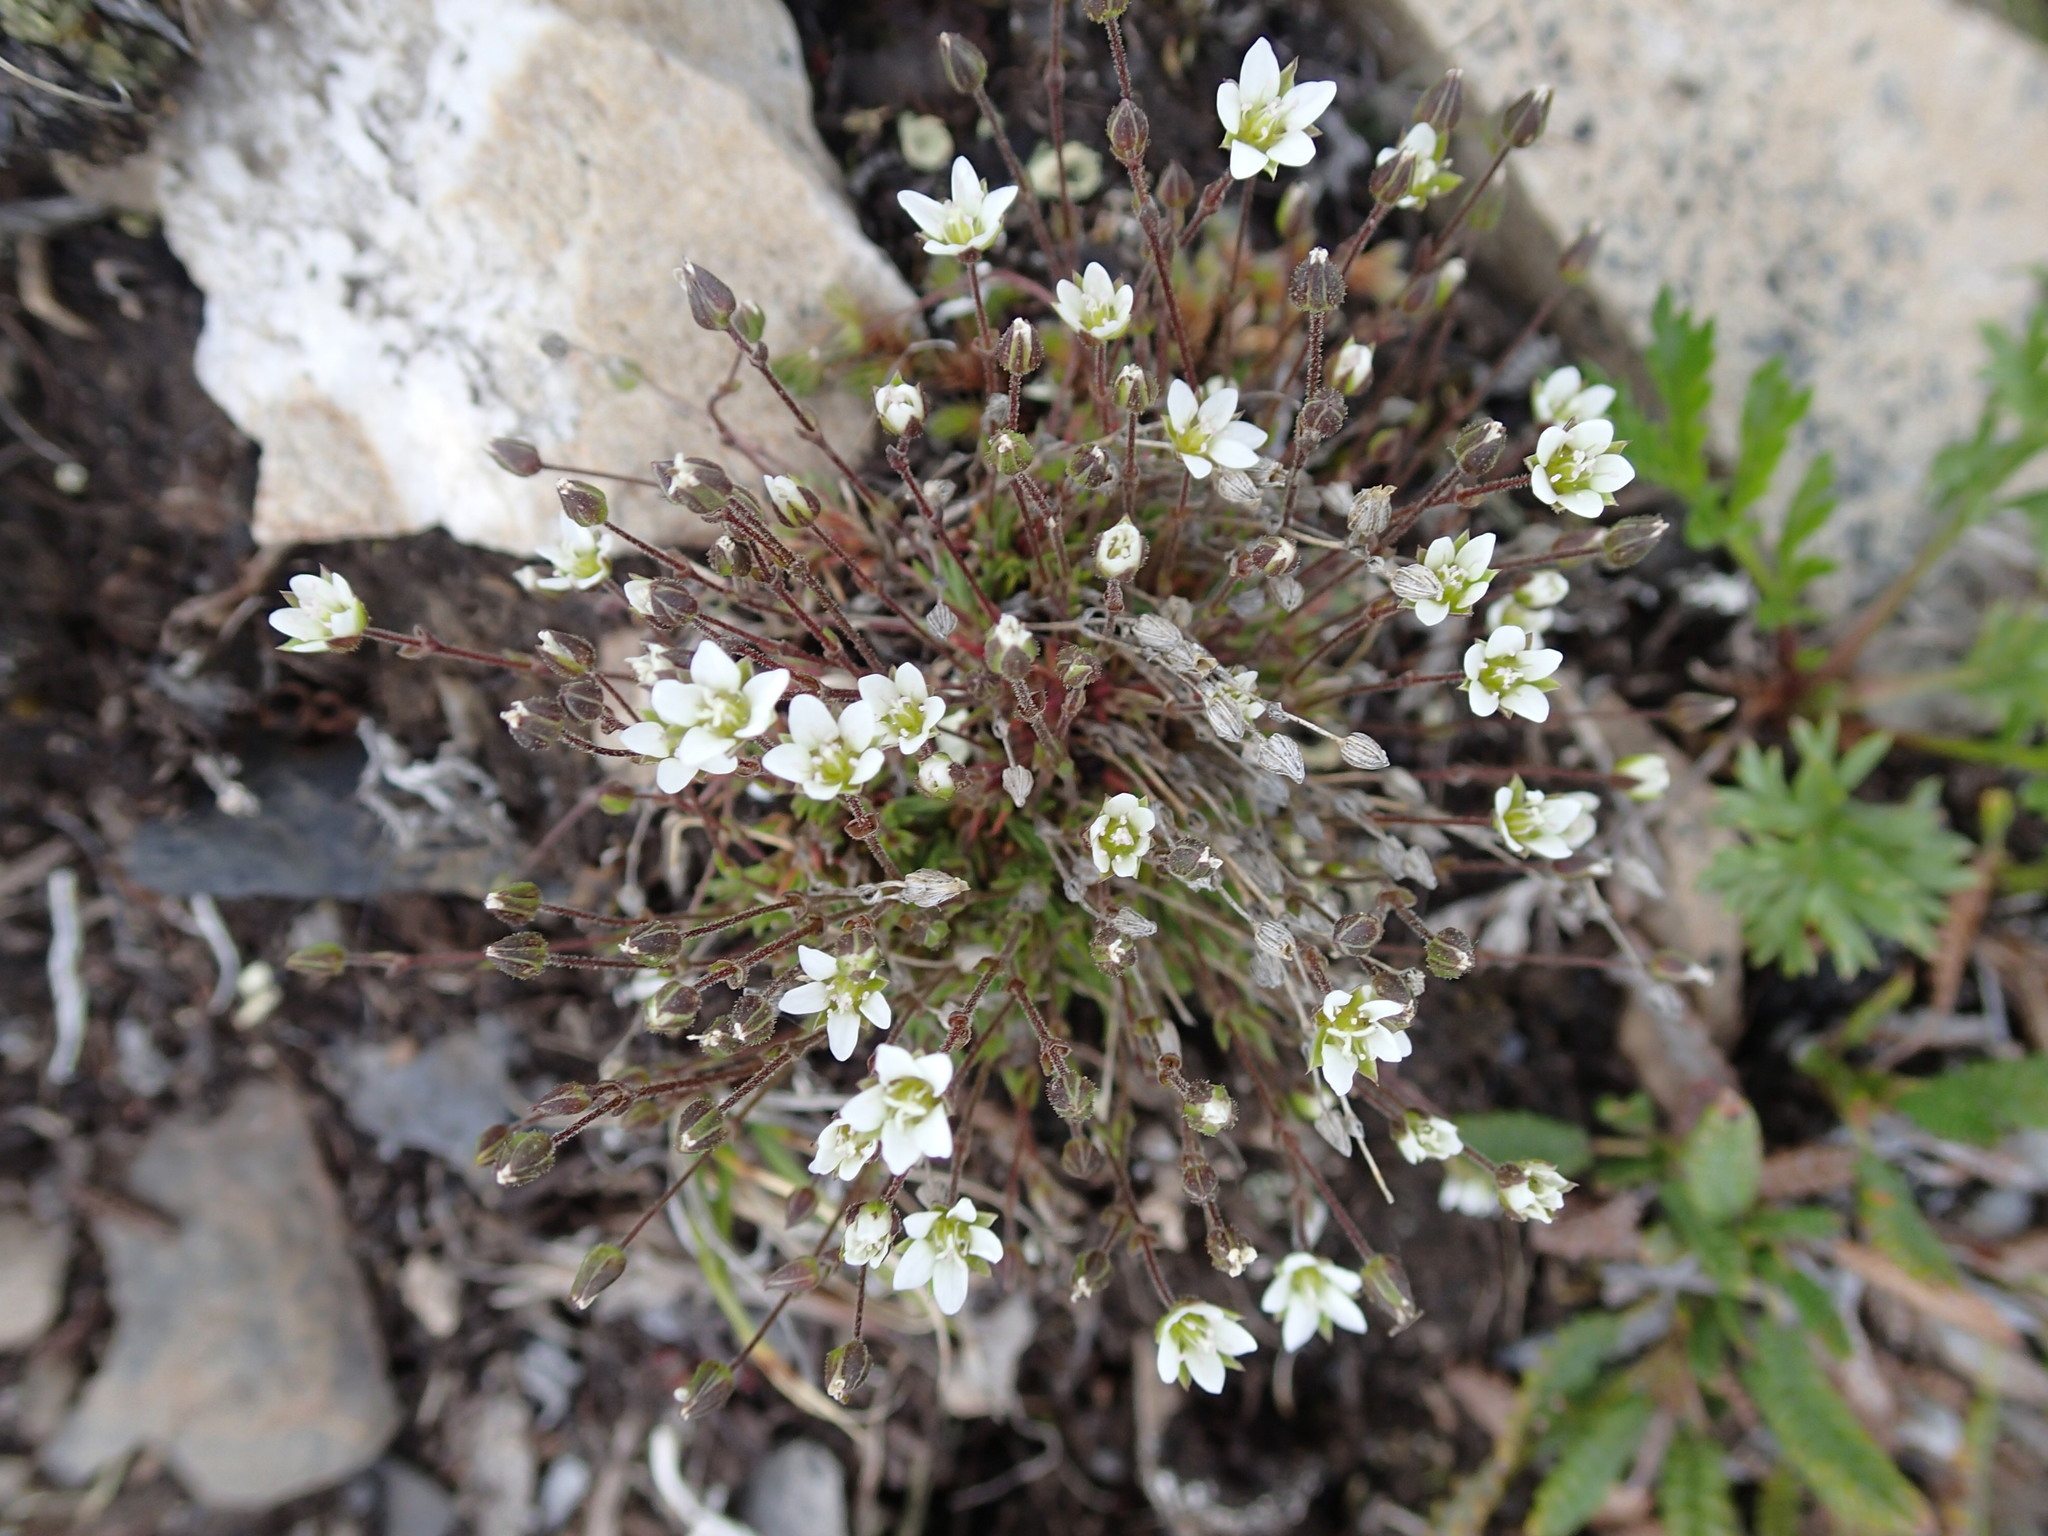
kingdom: Plantae
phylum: Tracheophyta
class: Magnoliopsida
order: Caryophyllales
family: Caryophyllaceae
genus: Sabulina
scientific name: Sabulina rubella
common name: Beautiful sandwort
